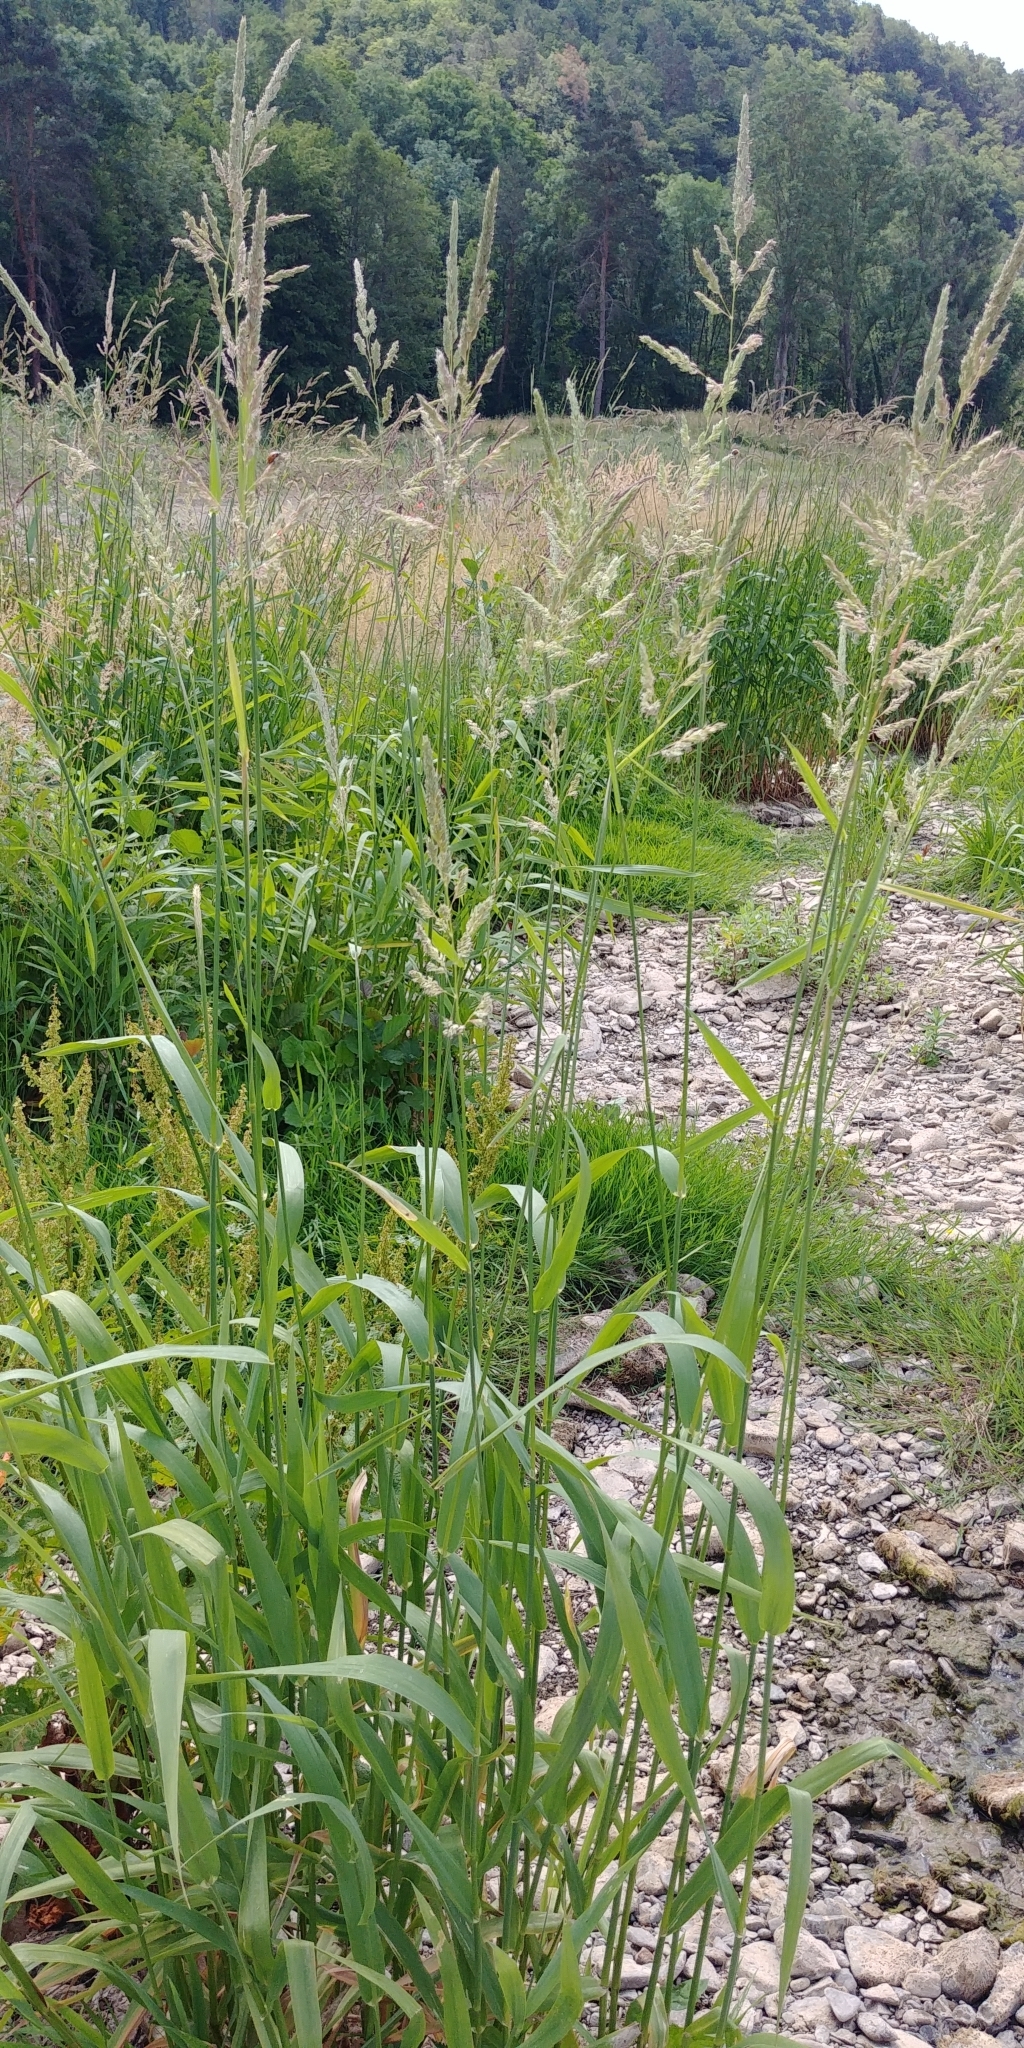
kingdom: Plantae
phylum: Tracheophyta
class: Liliopsida
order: Poales
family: Poaceae
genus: Phalaris
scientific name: Phalaris arundinacea
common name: Reed canary-grass
